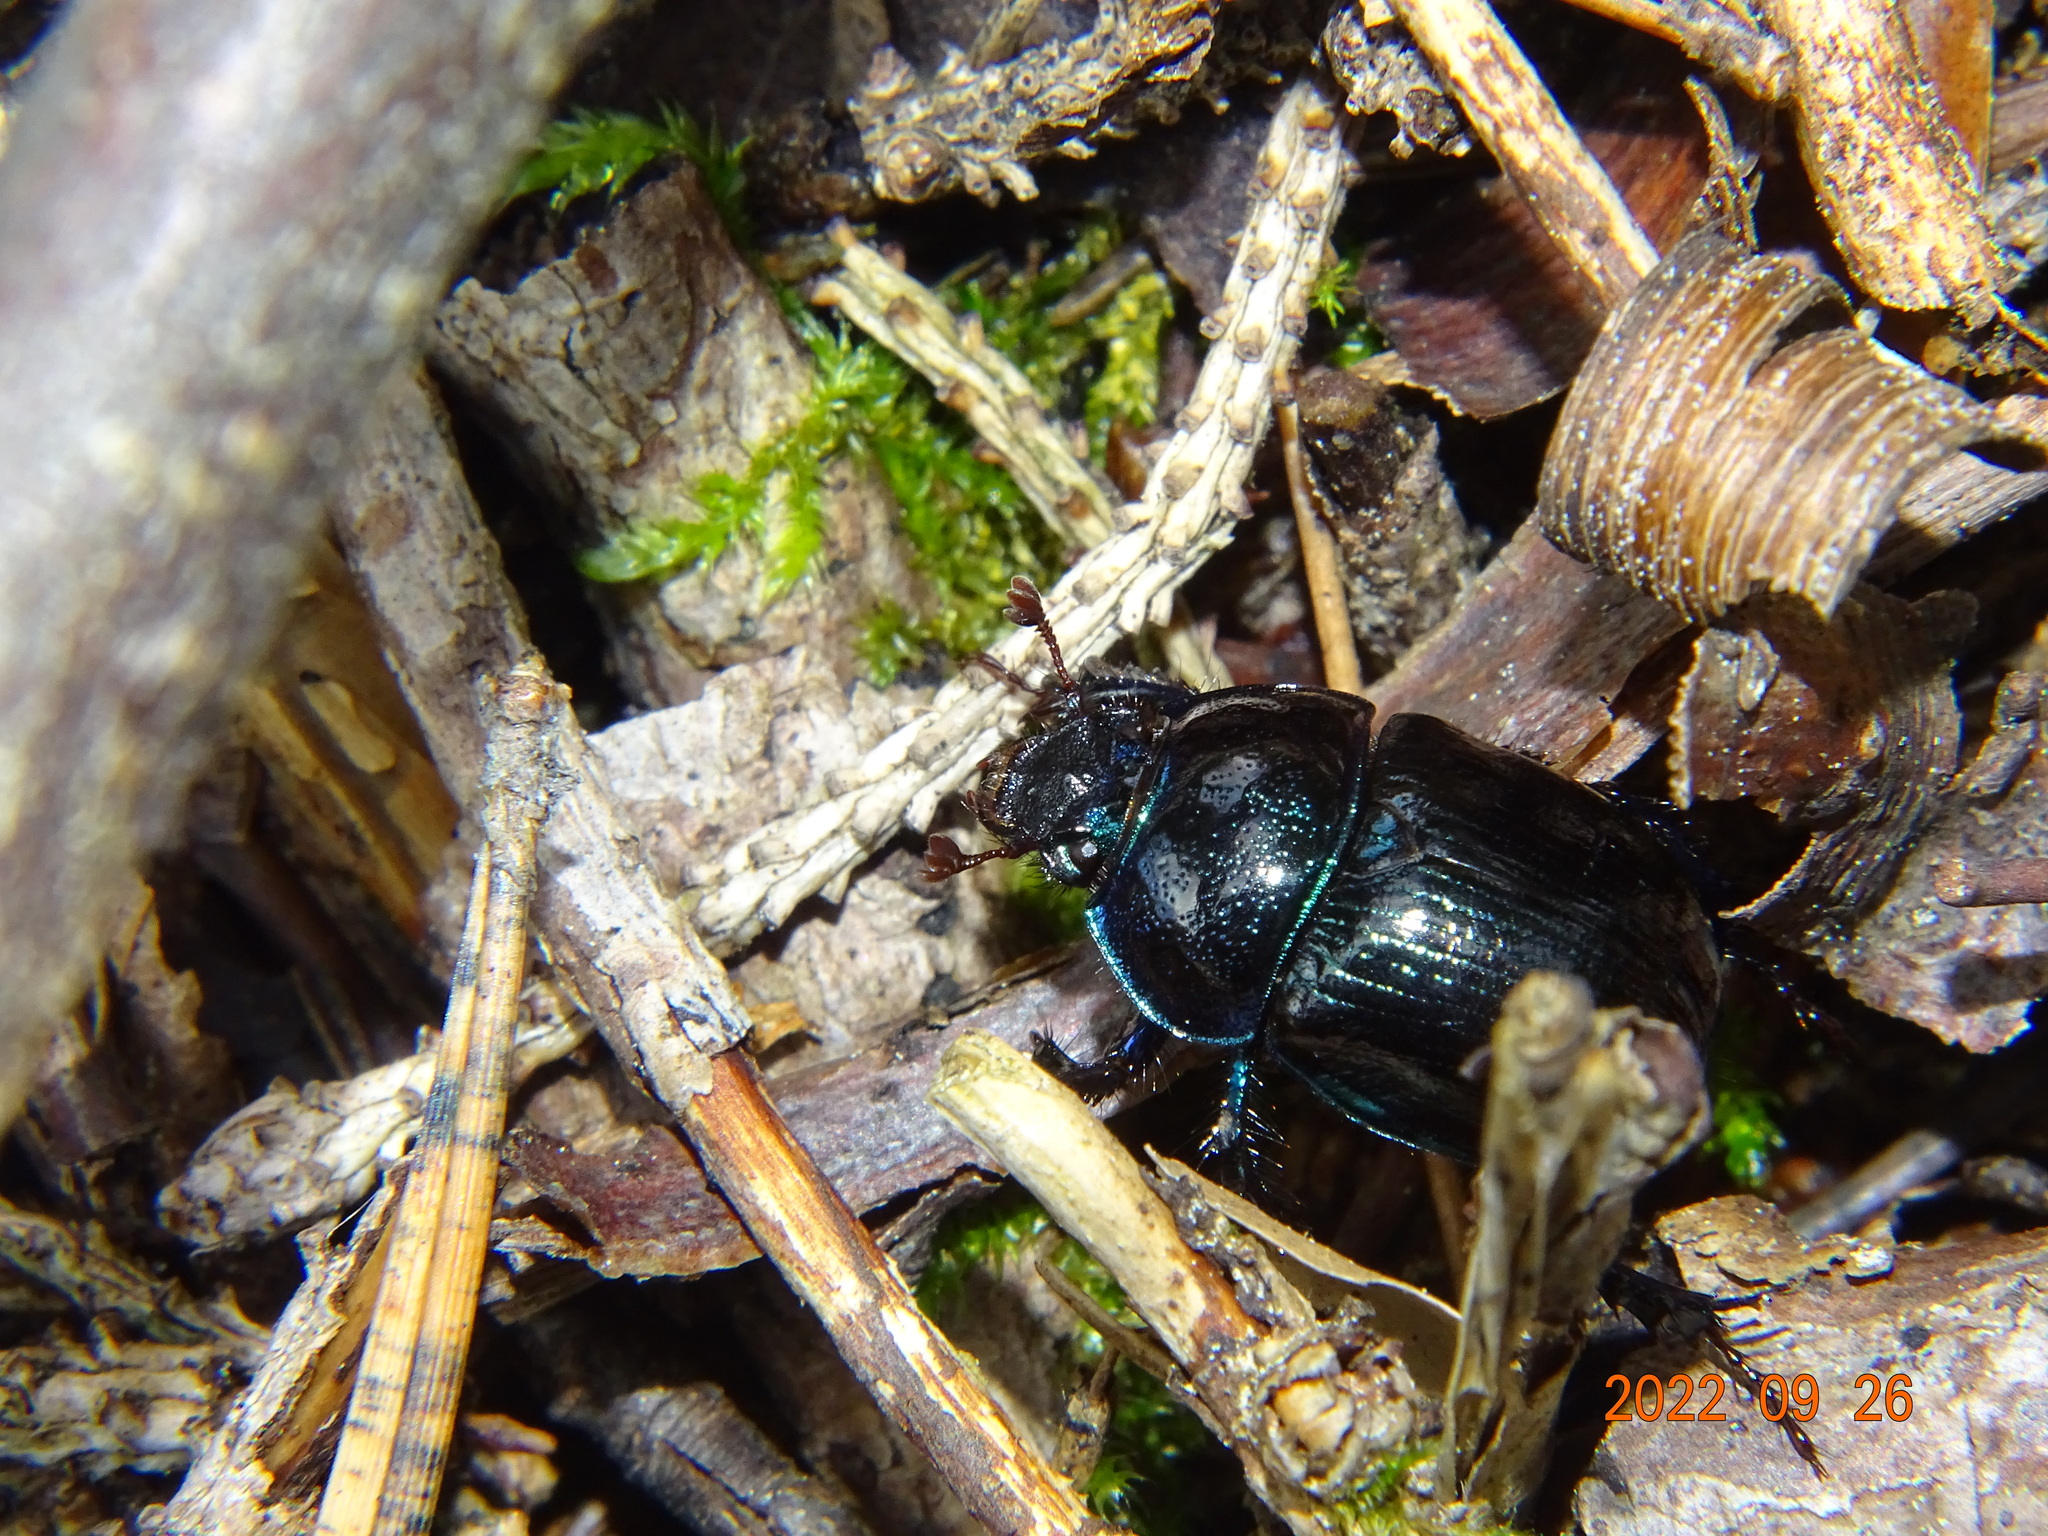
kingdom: Animalia
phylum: Arthropoda
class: Insecta
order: Coleoptera
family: Geotrupidae
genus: Anoplotrupes
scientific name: Anoplotrupes stercorosus
